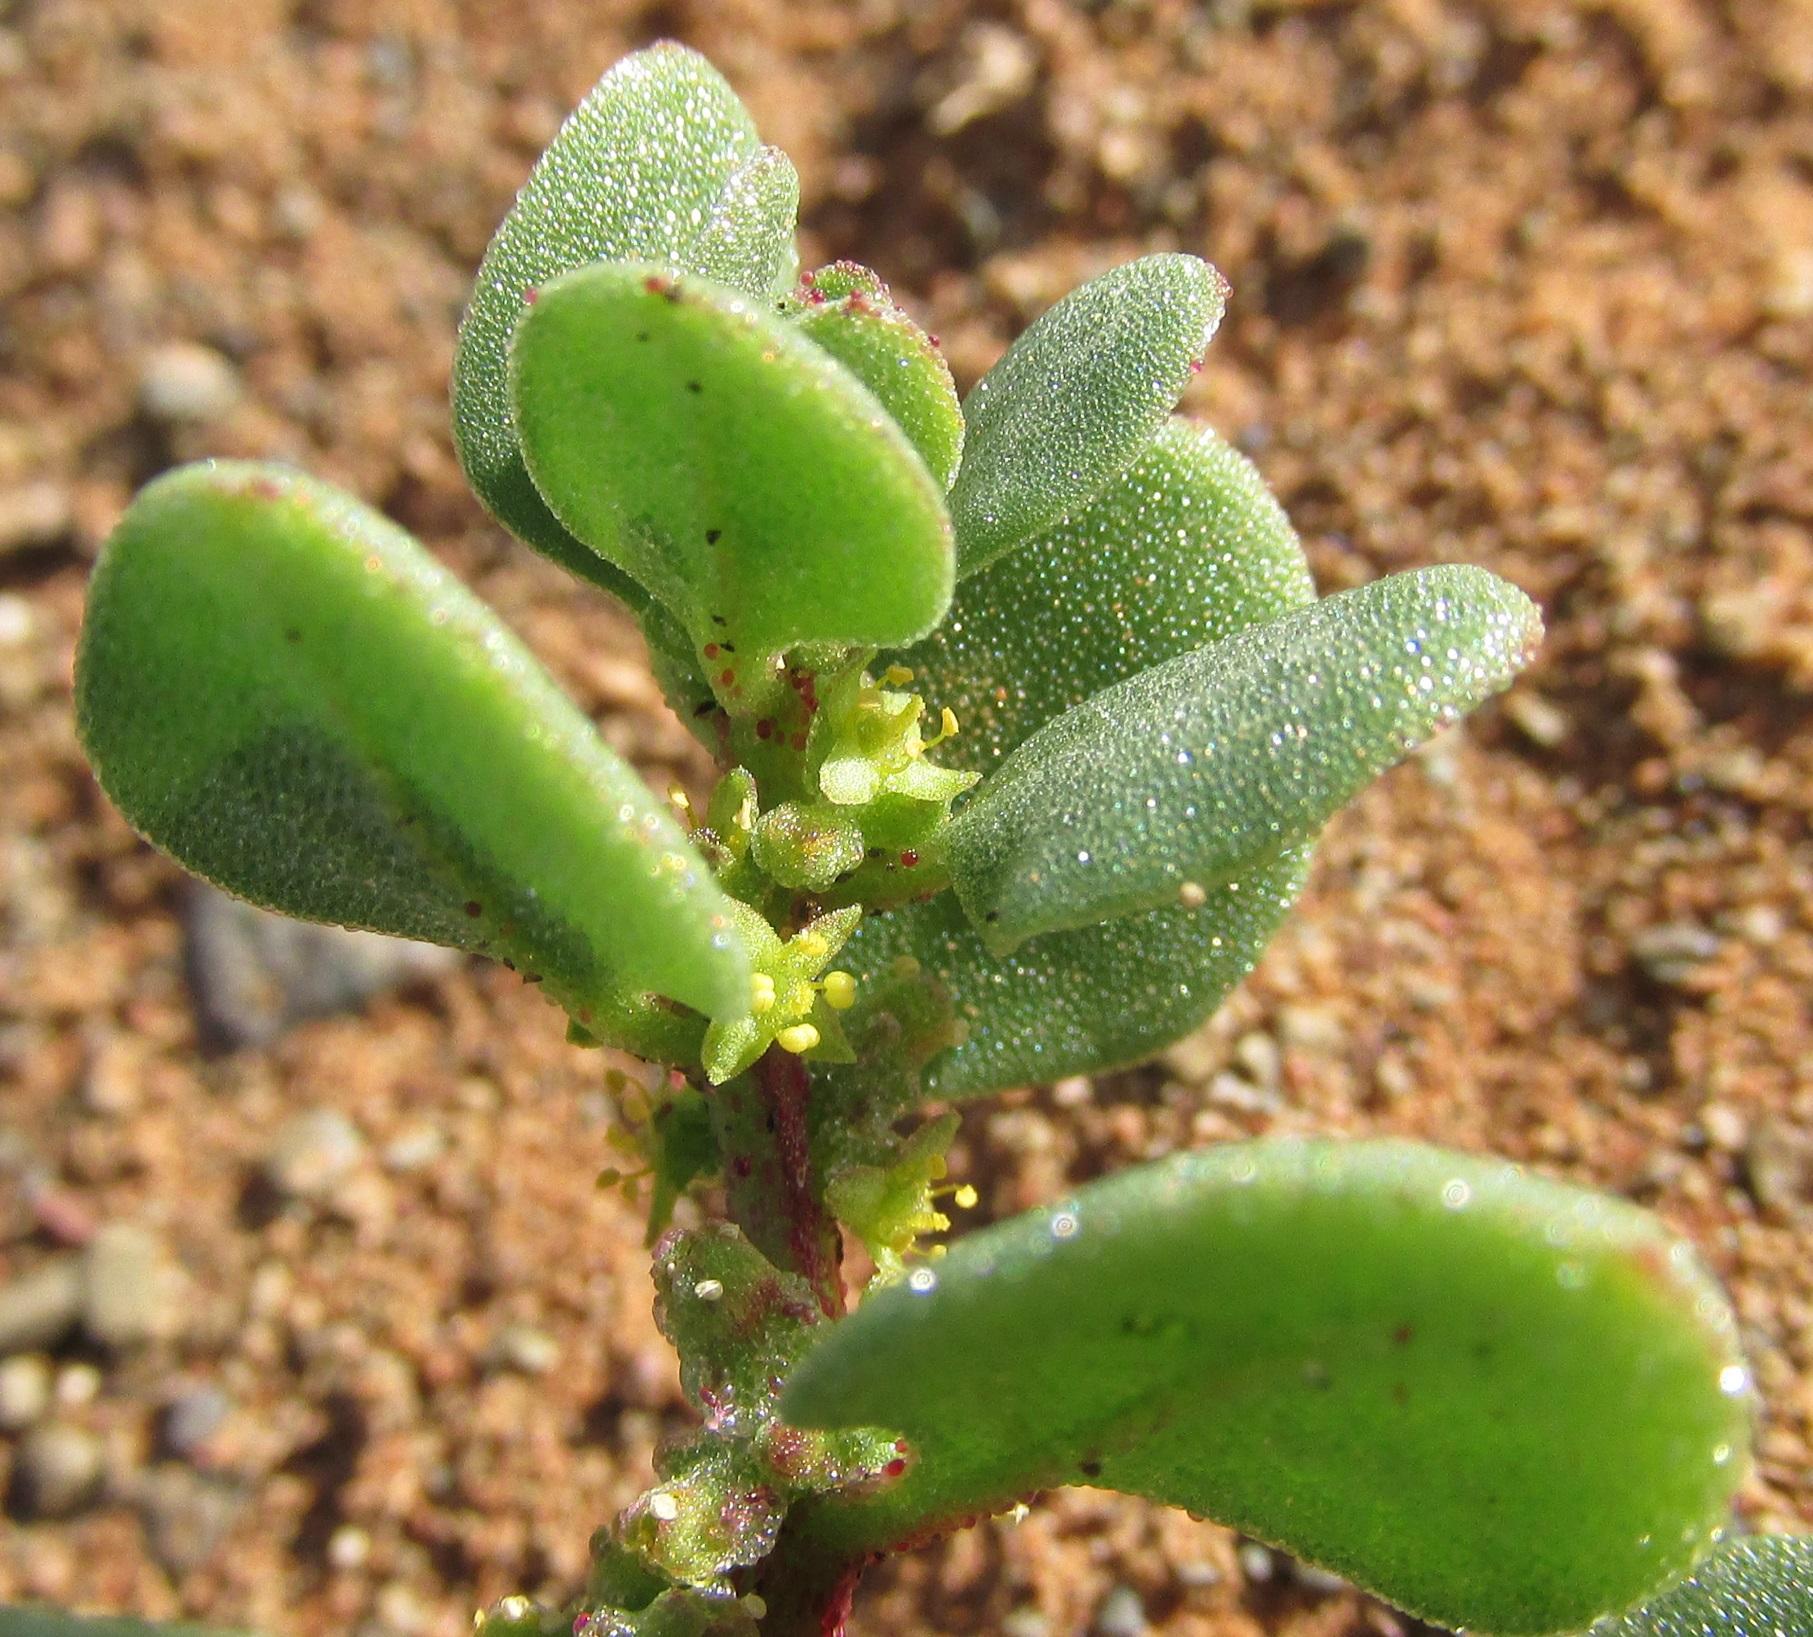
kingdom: Plantae
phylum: Tracheophyta
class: Magnoliopsida
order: Caryophyllales
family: Aizoaceae
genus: Tetragonia
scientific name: Tetragonia microptera
